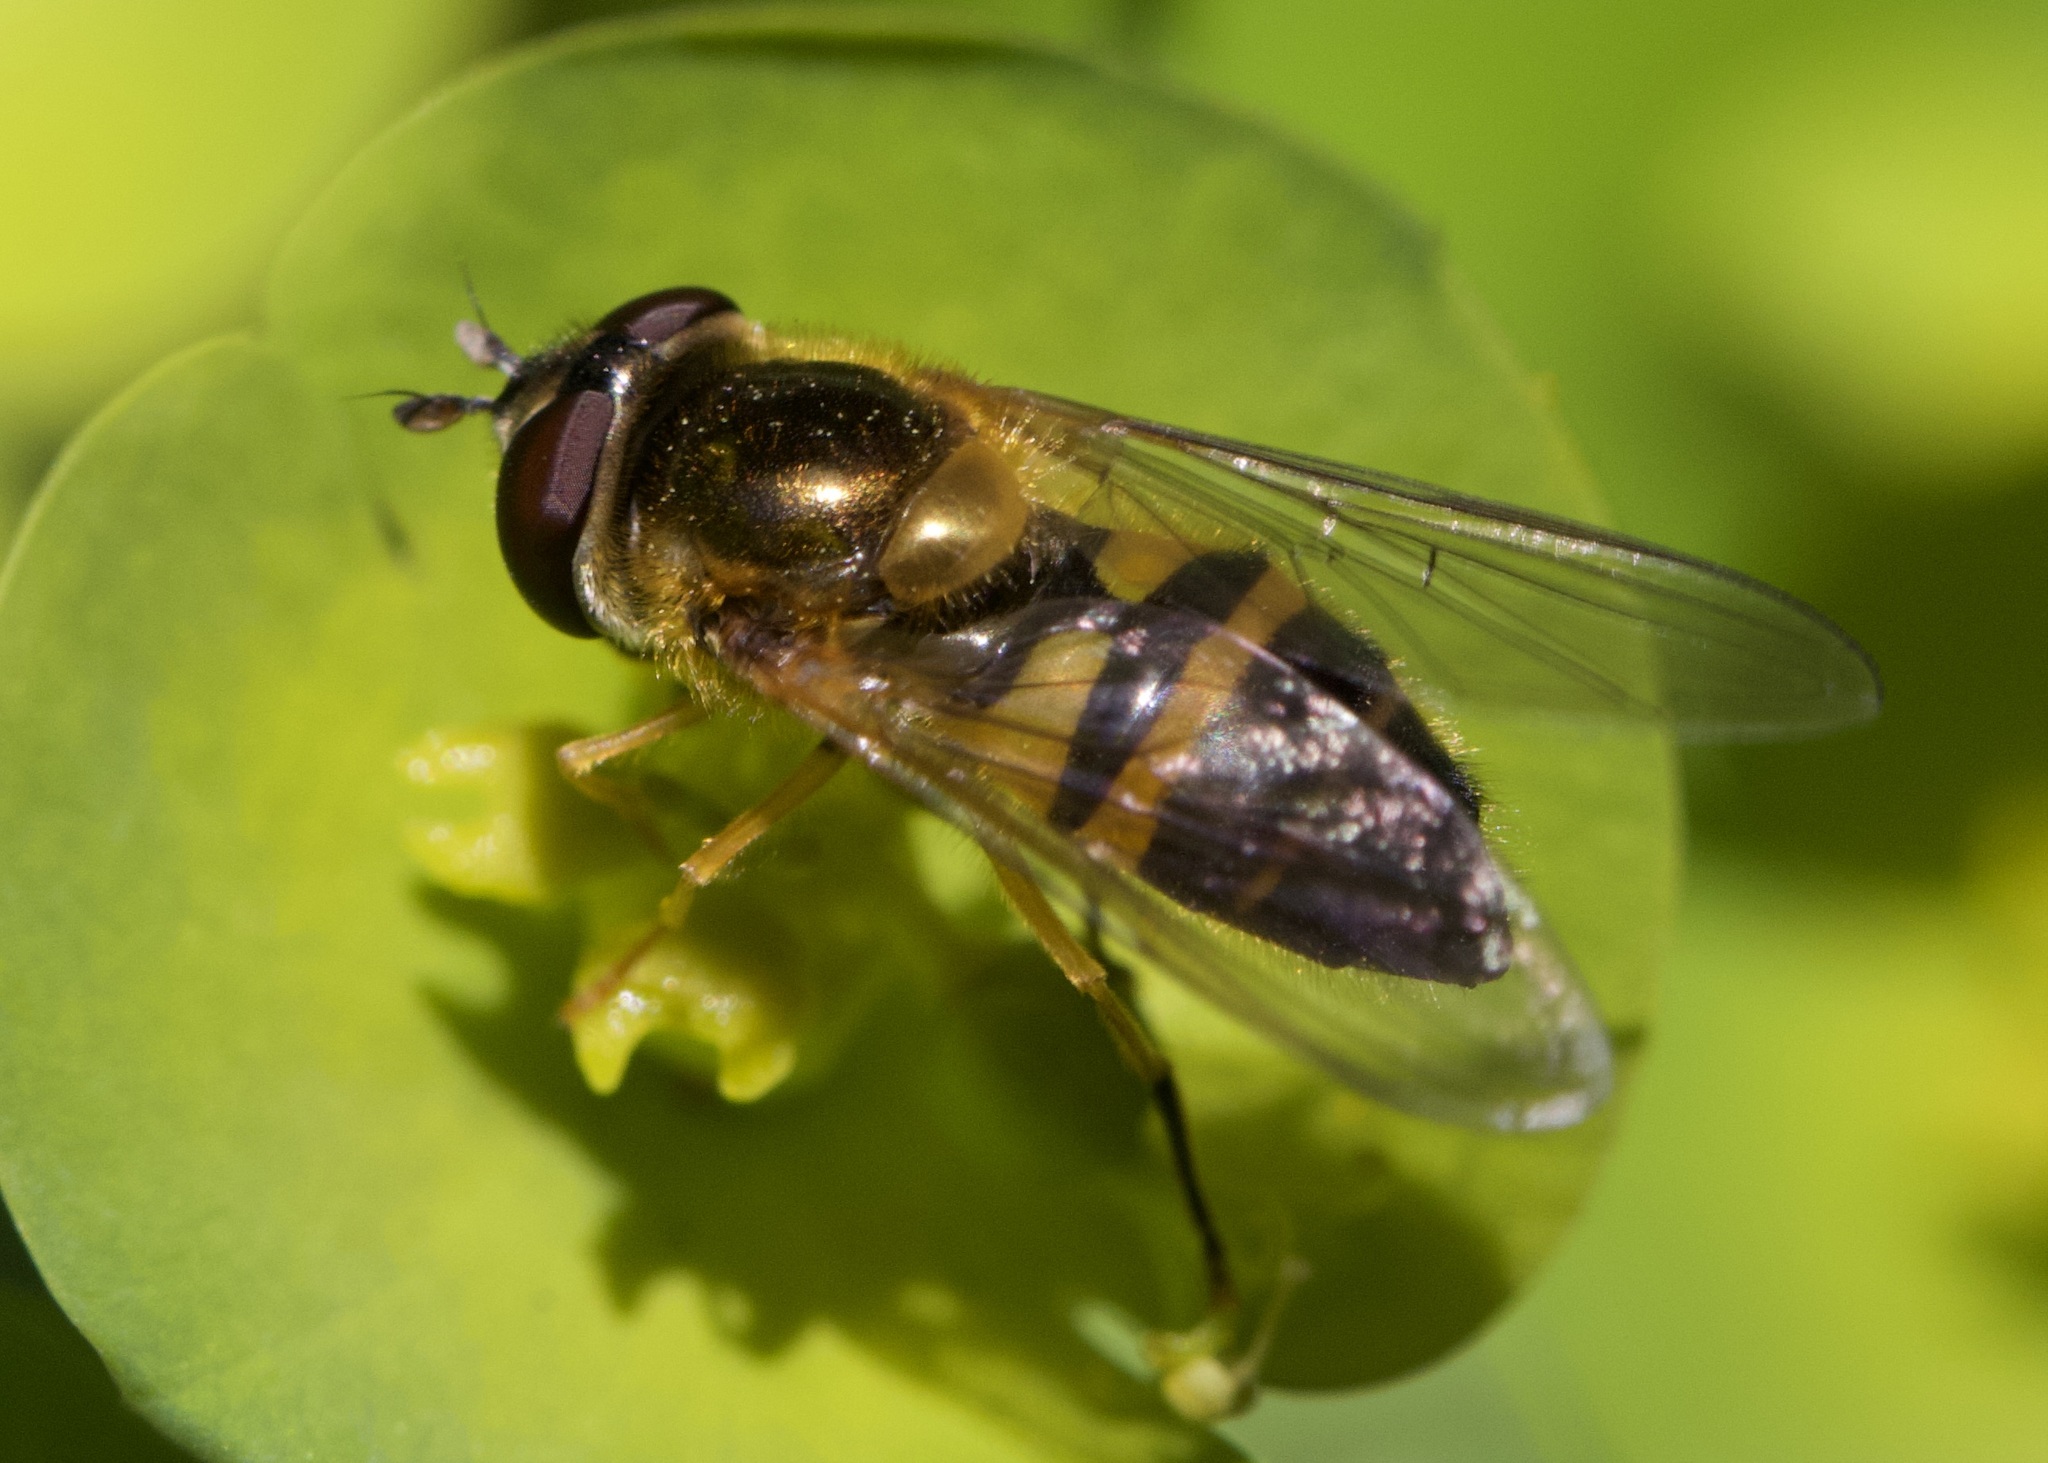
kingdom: Animalia
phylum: Arthropoda
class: Insecta
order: Diptera
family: Syrphidae
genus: Epistrophe
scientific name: Epistrophe eligans
